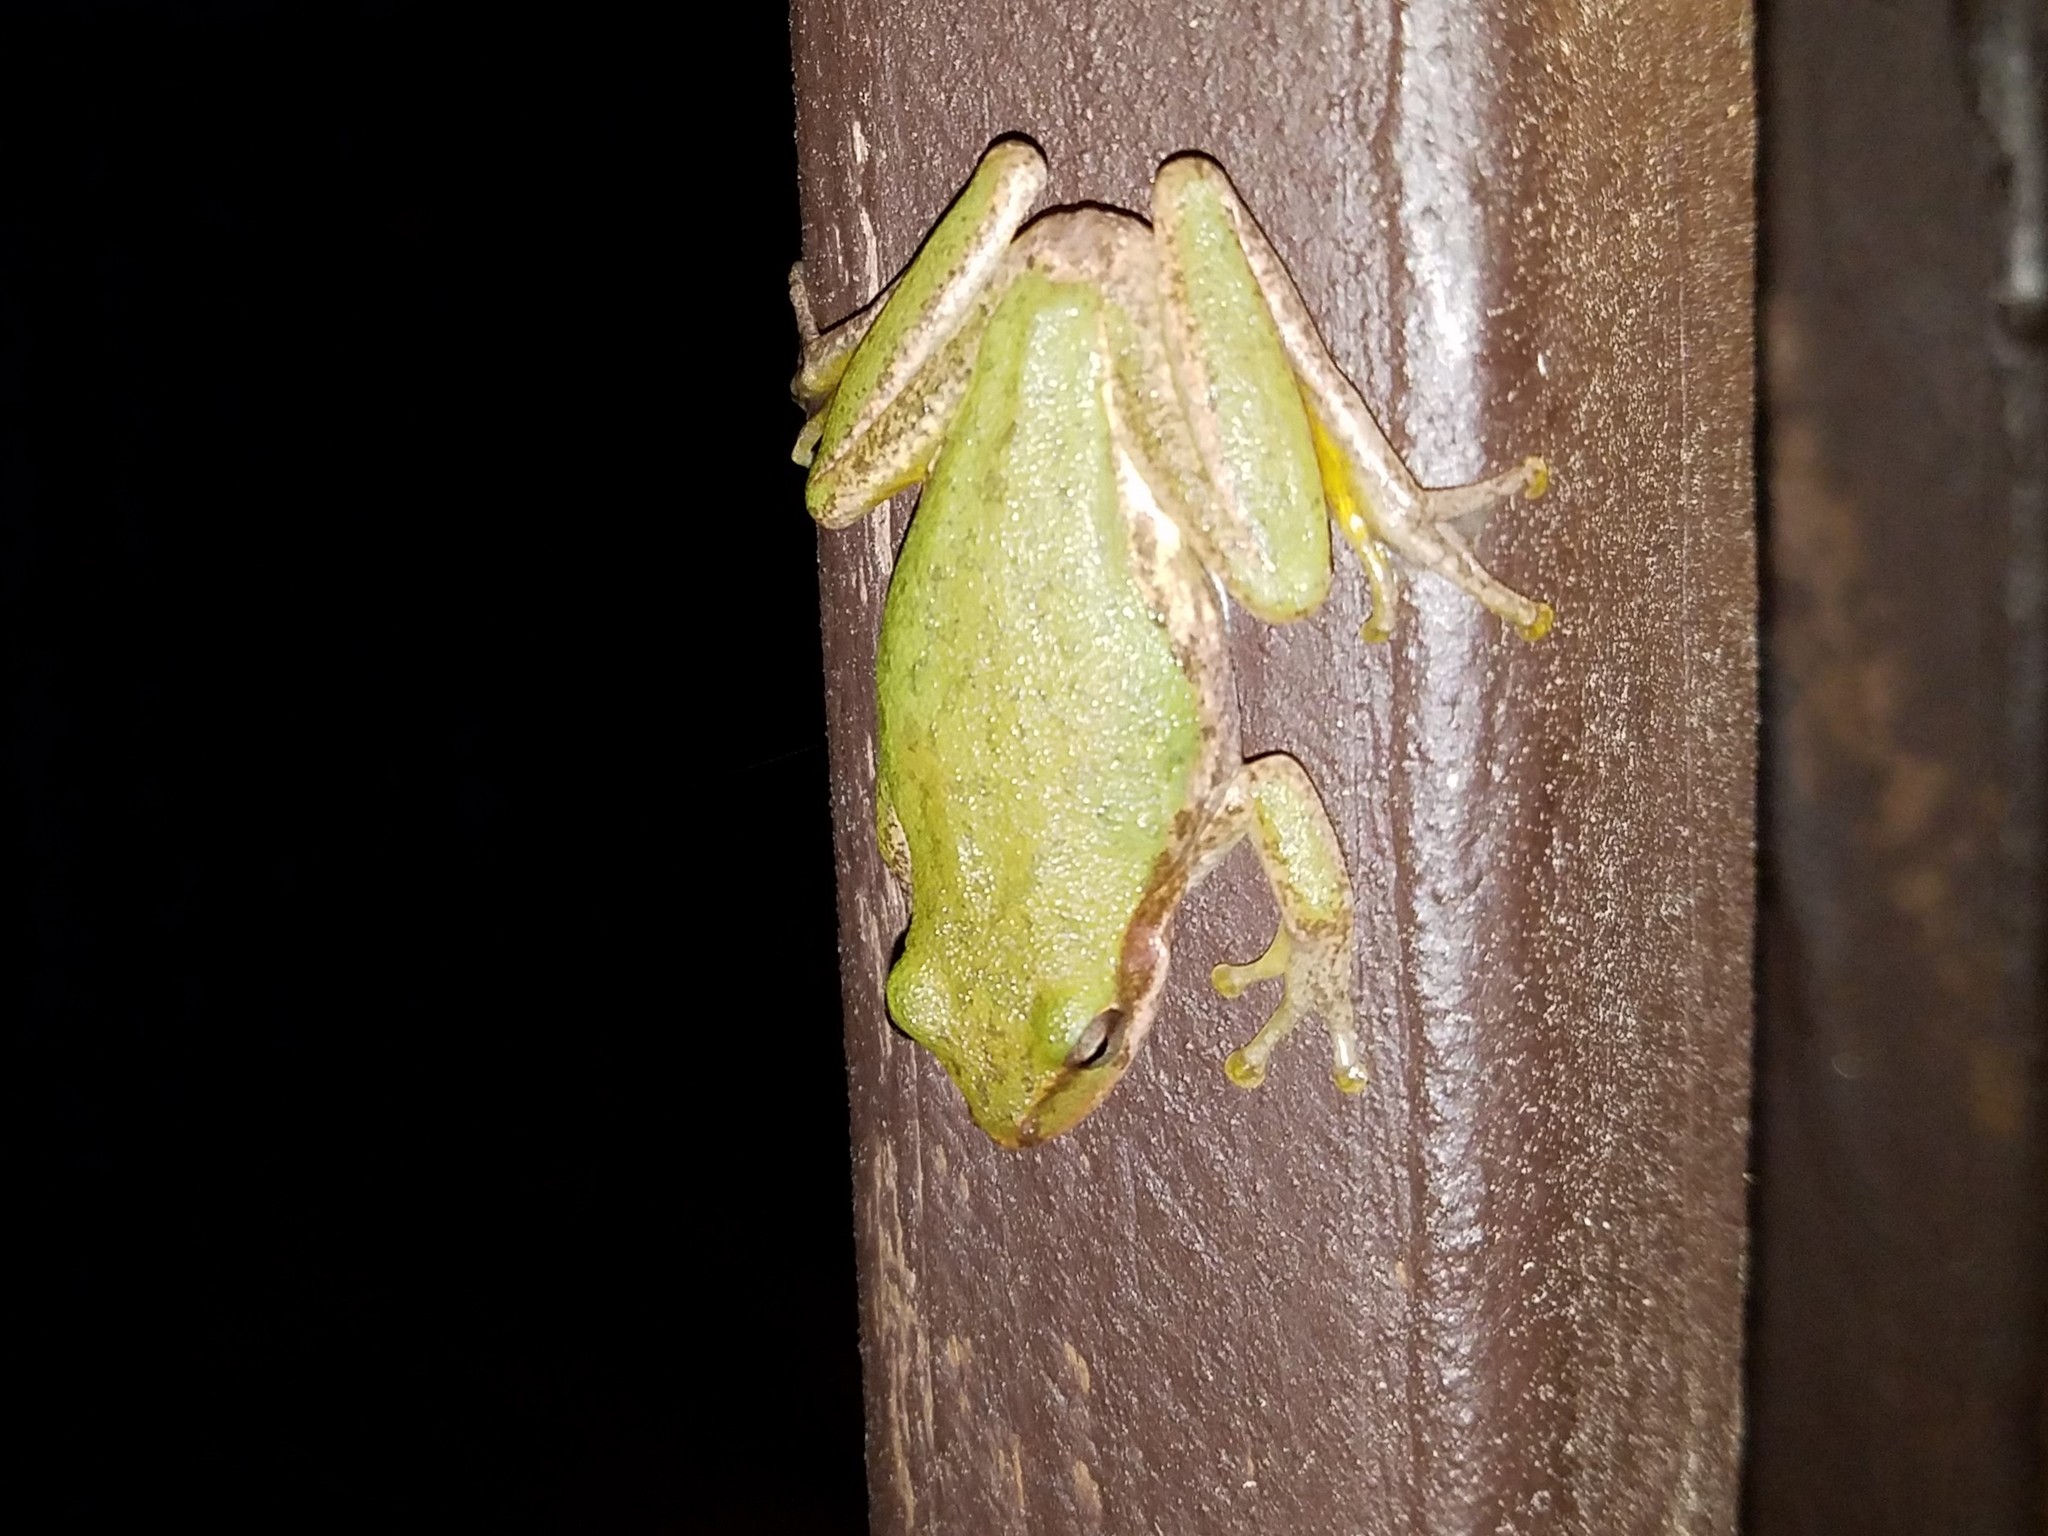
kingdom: Animalia
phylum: Chordata
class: Amphibia
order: Anura
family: Hylidae
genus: Dryophytes
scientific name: Dryophytes squirellus
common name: Squirrel treefrog
